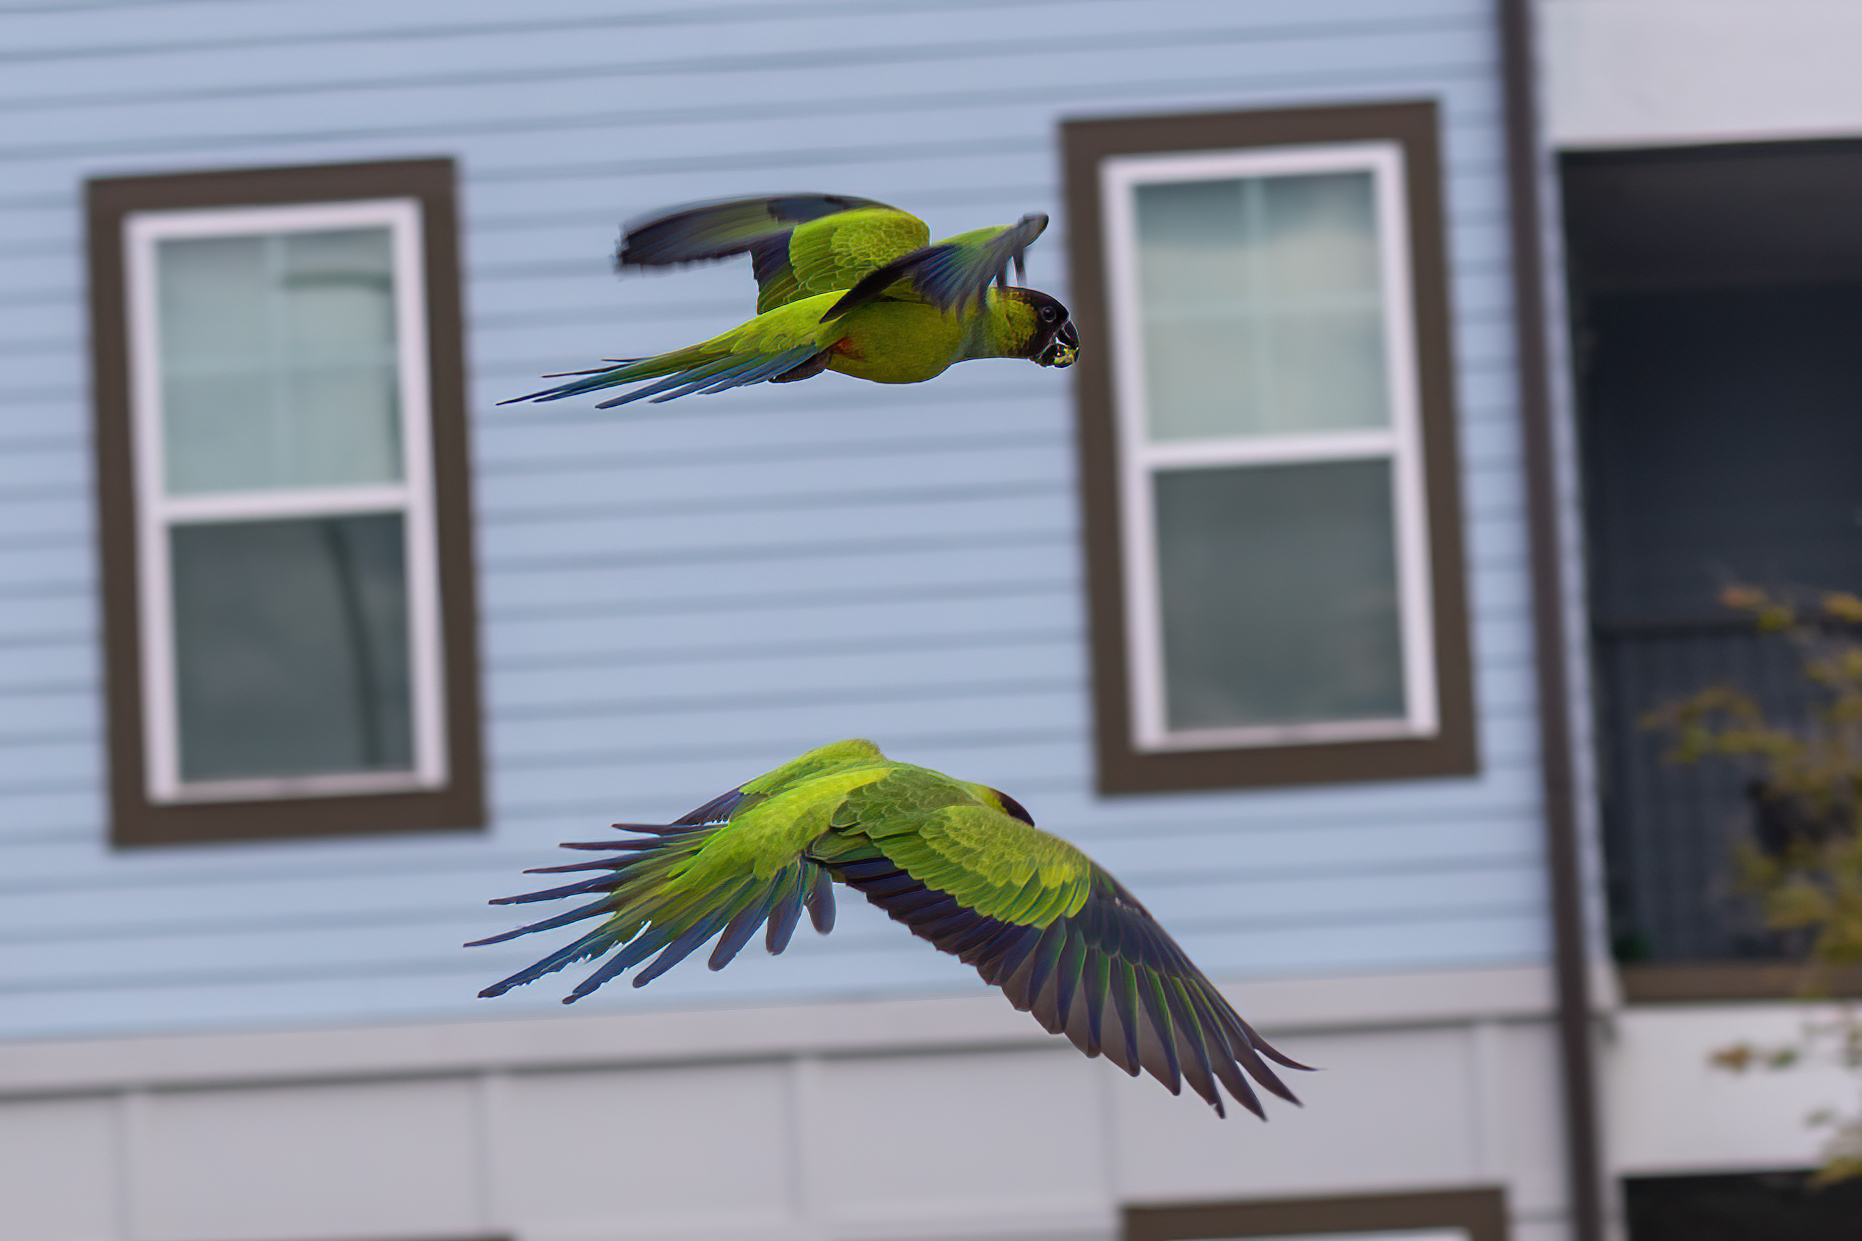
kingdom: Animalia
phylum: Chordata
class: Aves
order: Psittaciformes
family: Psittacidae
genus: Nandayus
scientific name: Nandayus nenday
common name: Nanday parakeet
